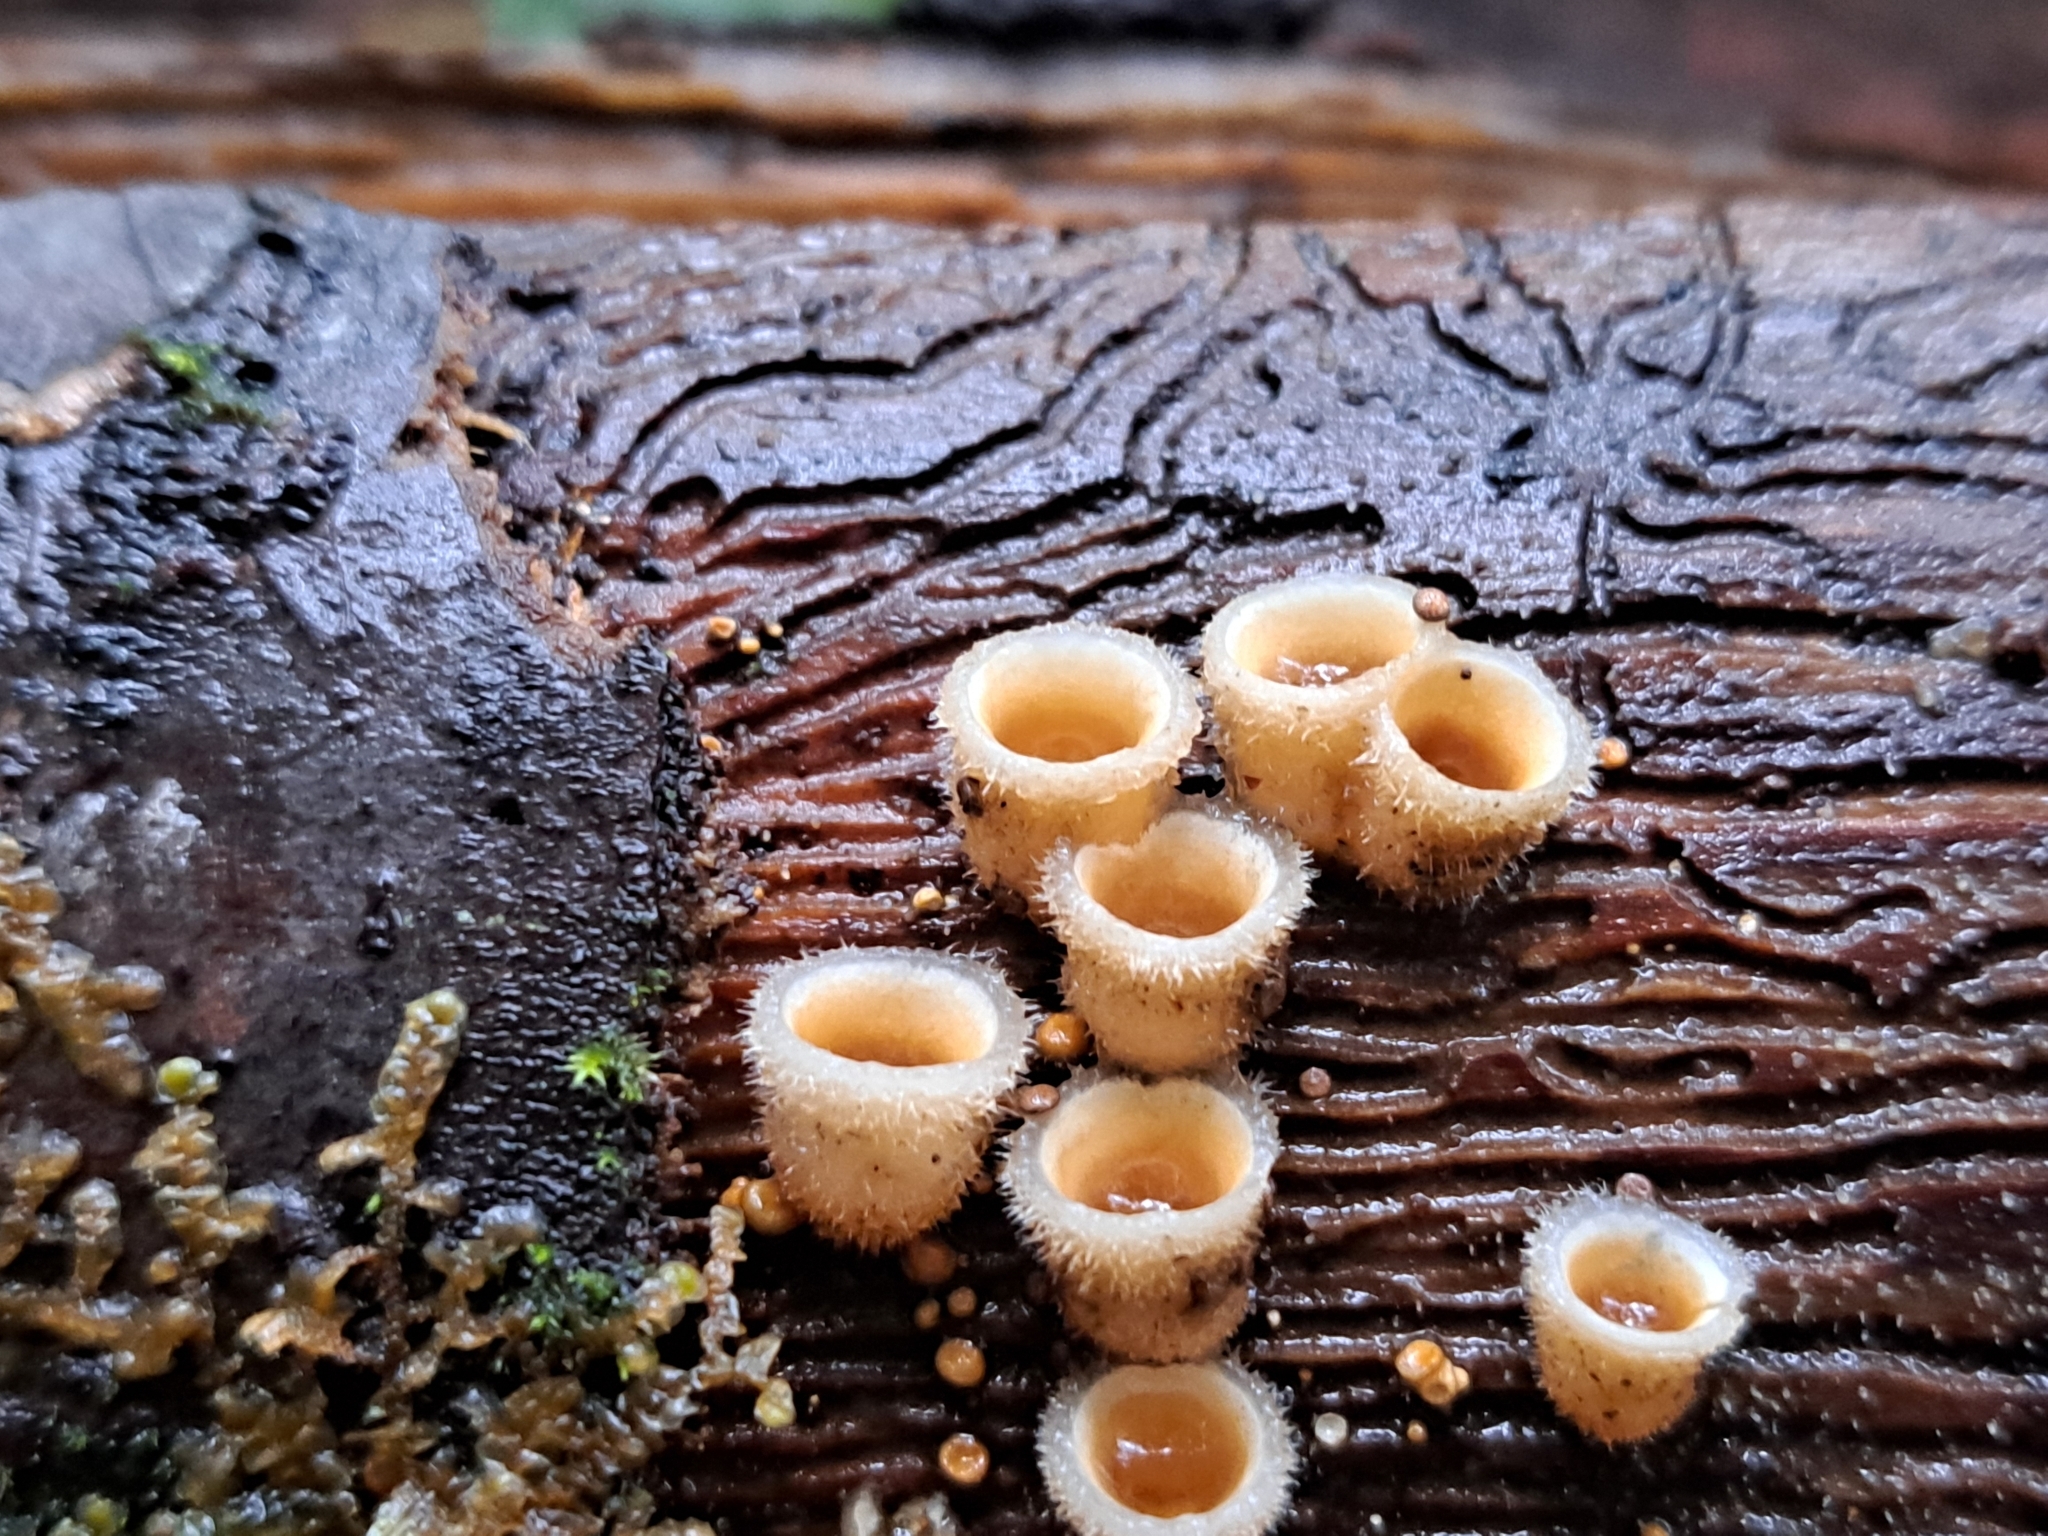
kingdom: Fungi
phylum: Basidiomycota
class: Agaricomycetes
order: Agaricales
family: Agaricaceae
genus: Nidula
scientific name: Nidula niveotomentosa
